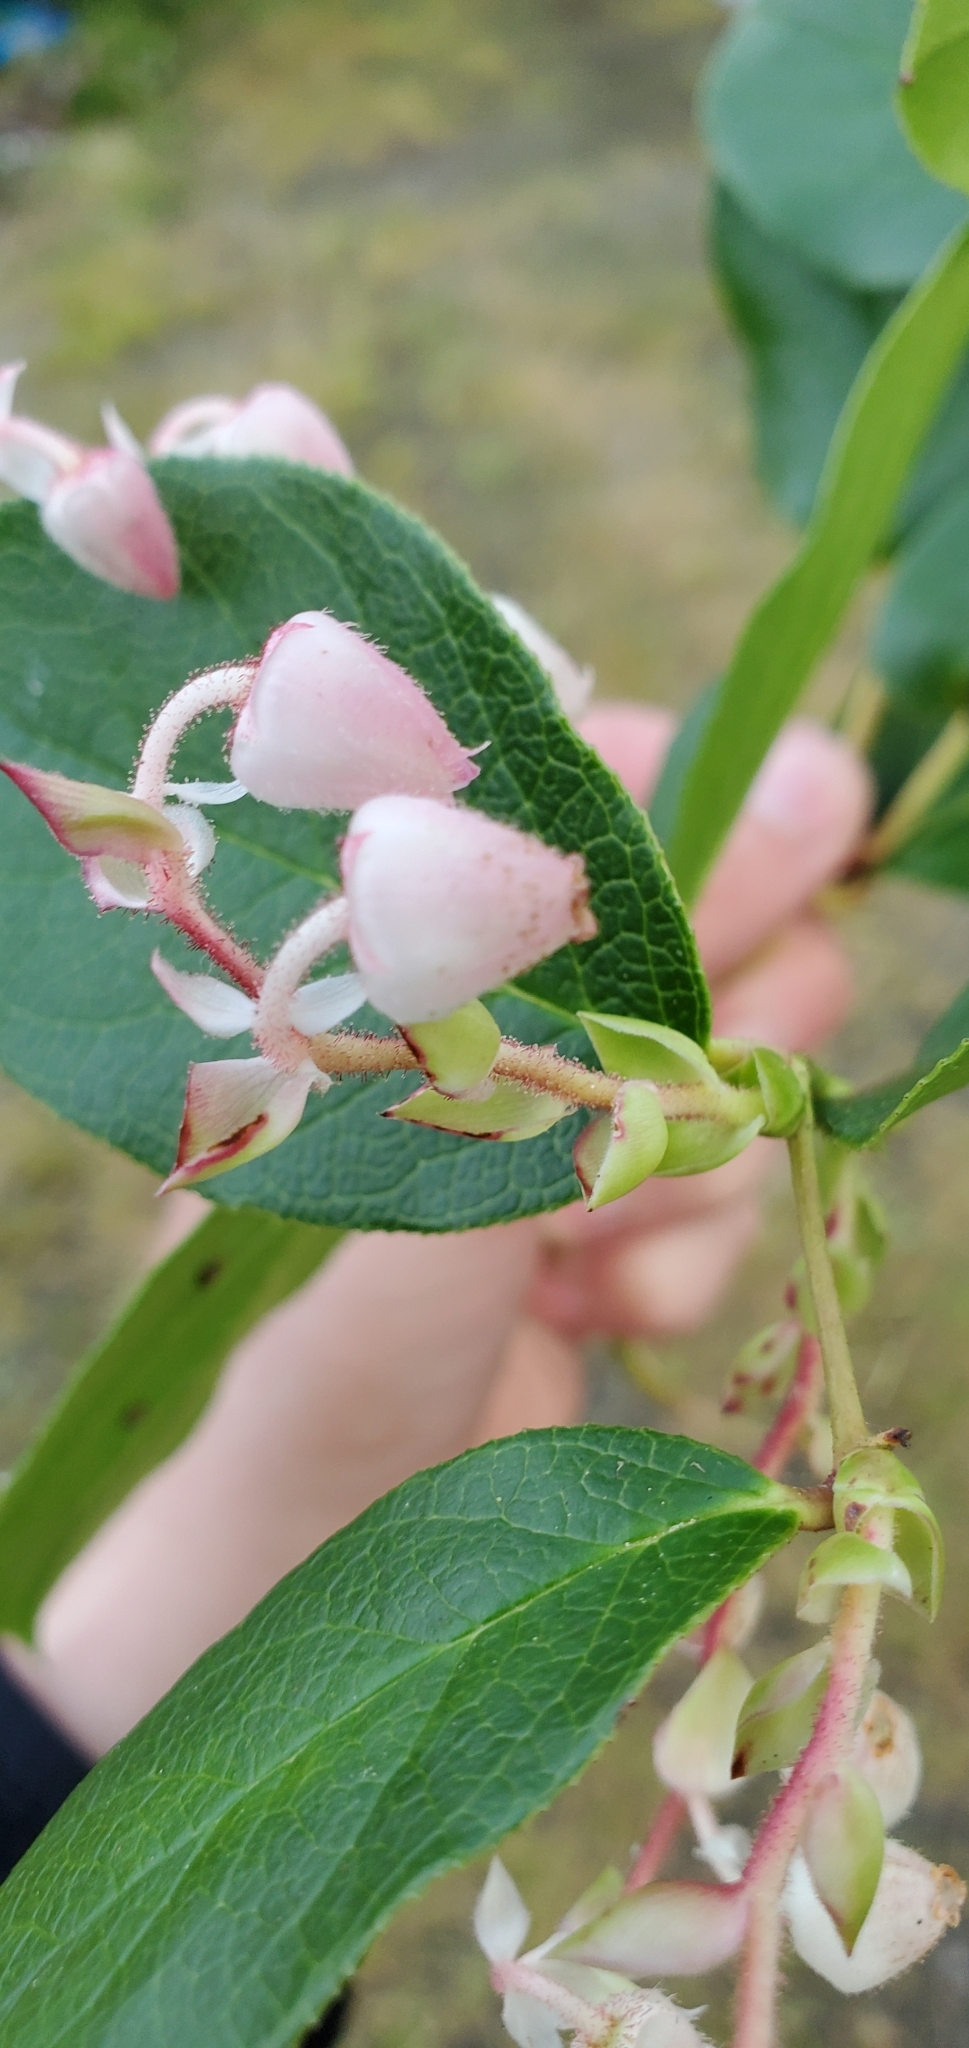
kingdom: Plantae
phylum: Tracheophyta
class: Magnoliopsida
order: Ericales
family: Ericaceae
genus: Gaultheria
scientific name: Gaultheria shallon
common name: Shallon
